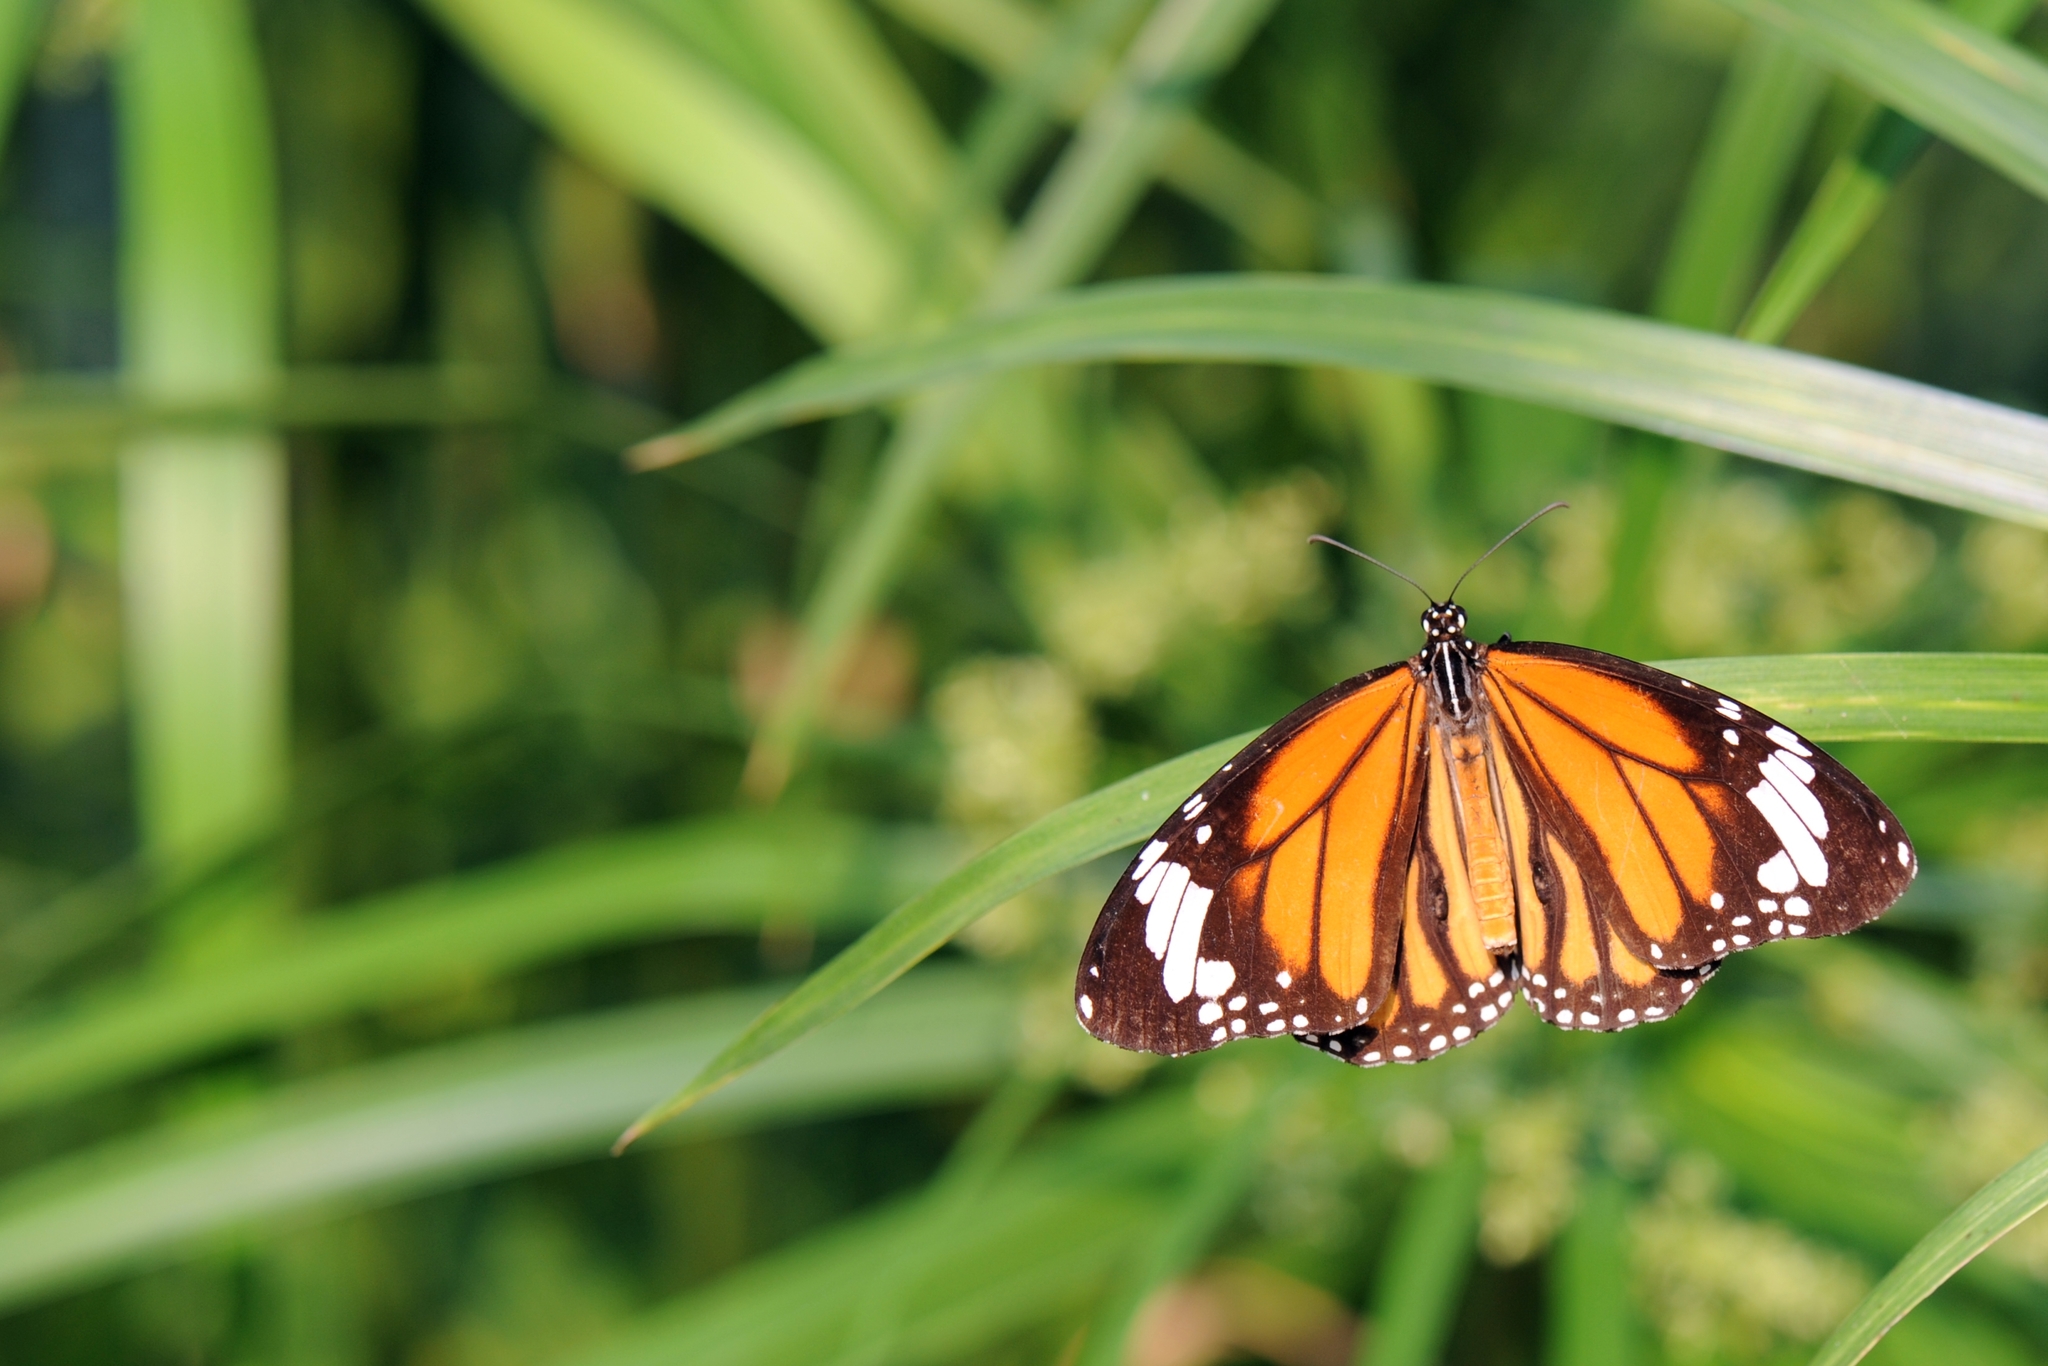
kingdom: Animalia
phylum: Arthropoda
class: Insecta
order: Lepidoptera
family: Nymphalidae
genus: Danaus
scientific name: Danaus genutia
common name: Common tiger butterfly
